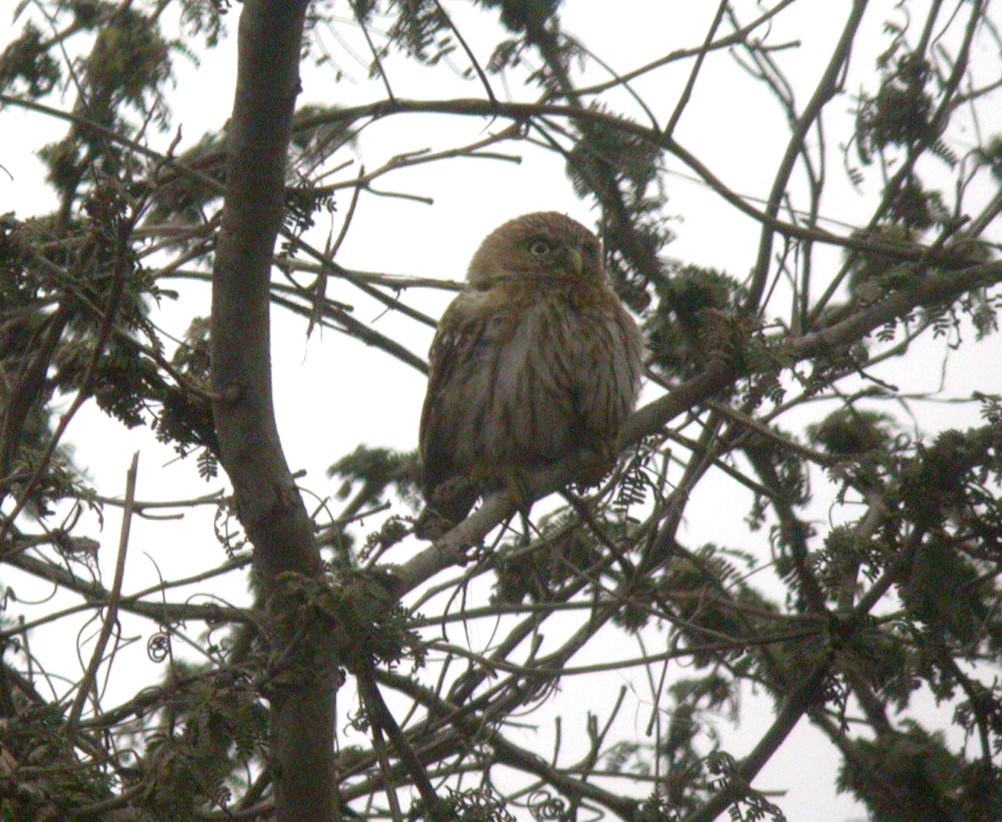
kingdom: Animalia
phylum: Chordata
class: Aves
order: Strigiformes
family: Strigidae
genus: Glaucidium
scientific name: Glaucidium peruanum
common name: Pacific pygmy owl
